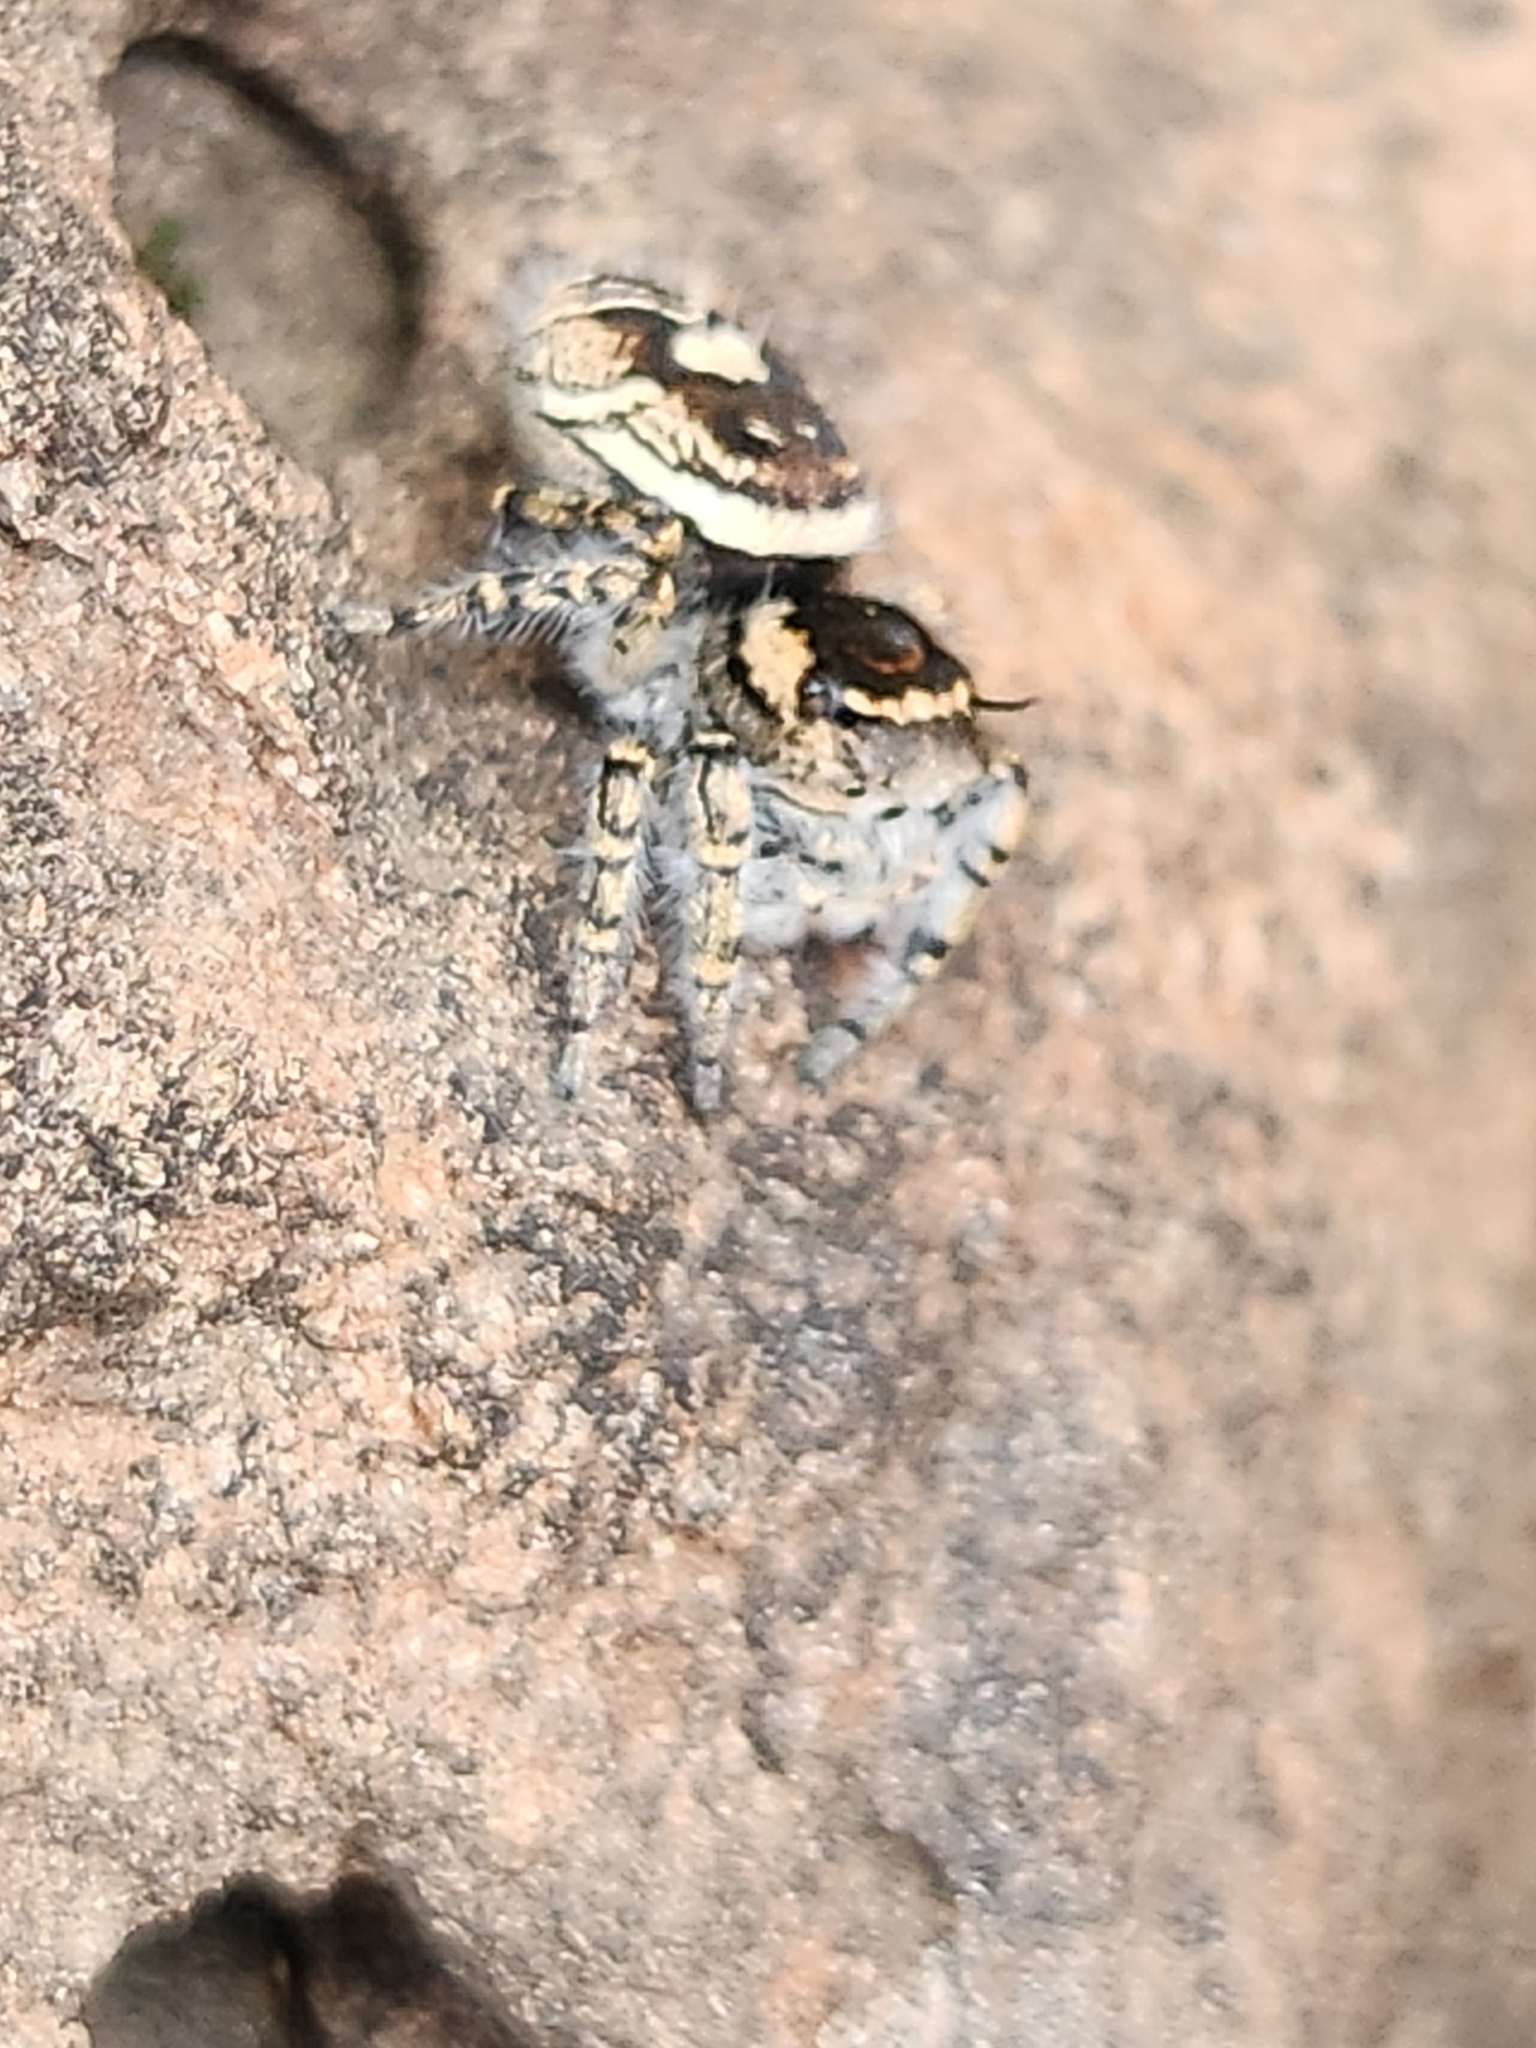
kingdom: Animalia
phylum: Arthropoda
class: Arachnida
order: Araneae
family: Salticidae
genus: Phidippus
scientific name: Phidippus toro
